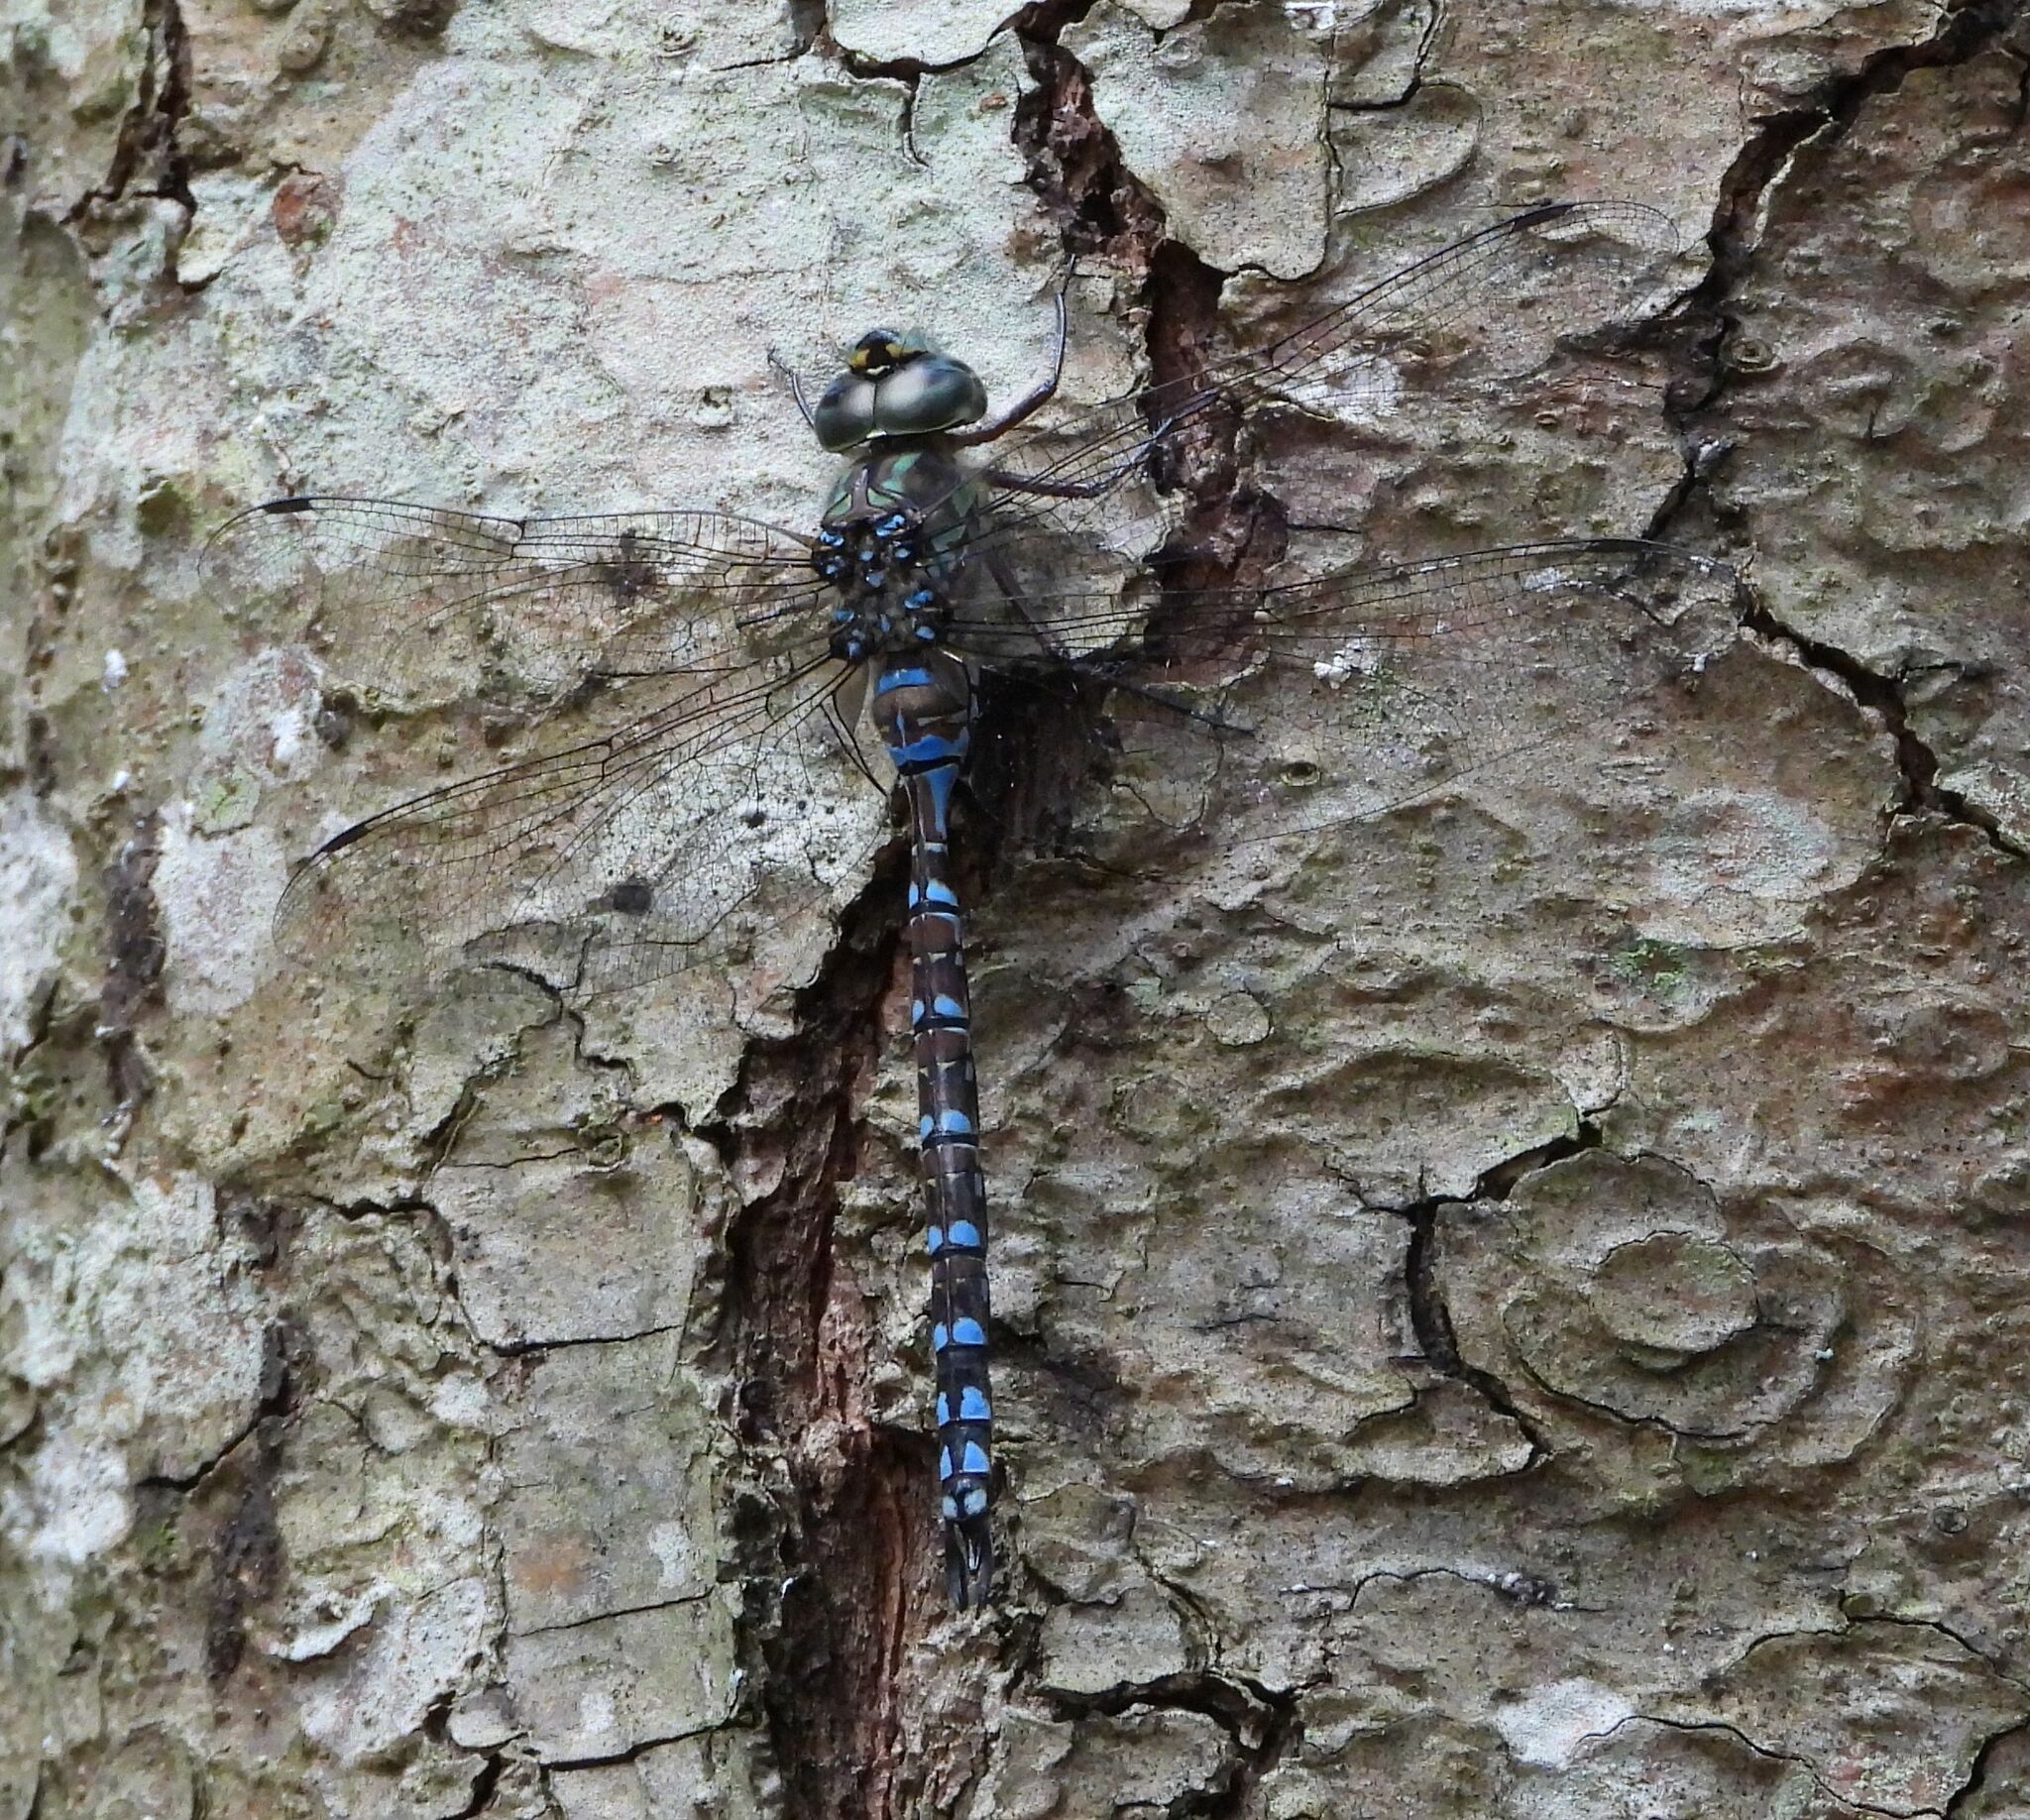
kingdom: Animalia
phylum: Arthropoda
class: Insecta
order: Odonata
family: Aeshnidae
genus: Aeshna
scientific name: Aeshna canadensis
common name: Canada darner
